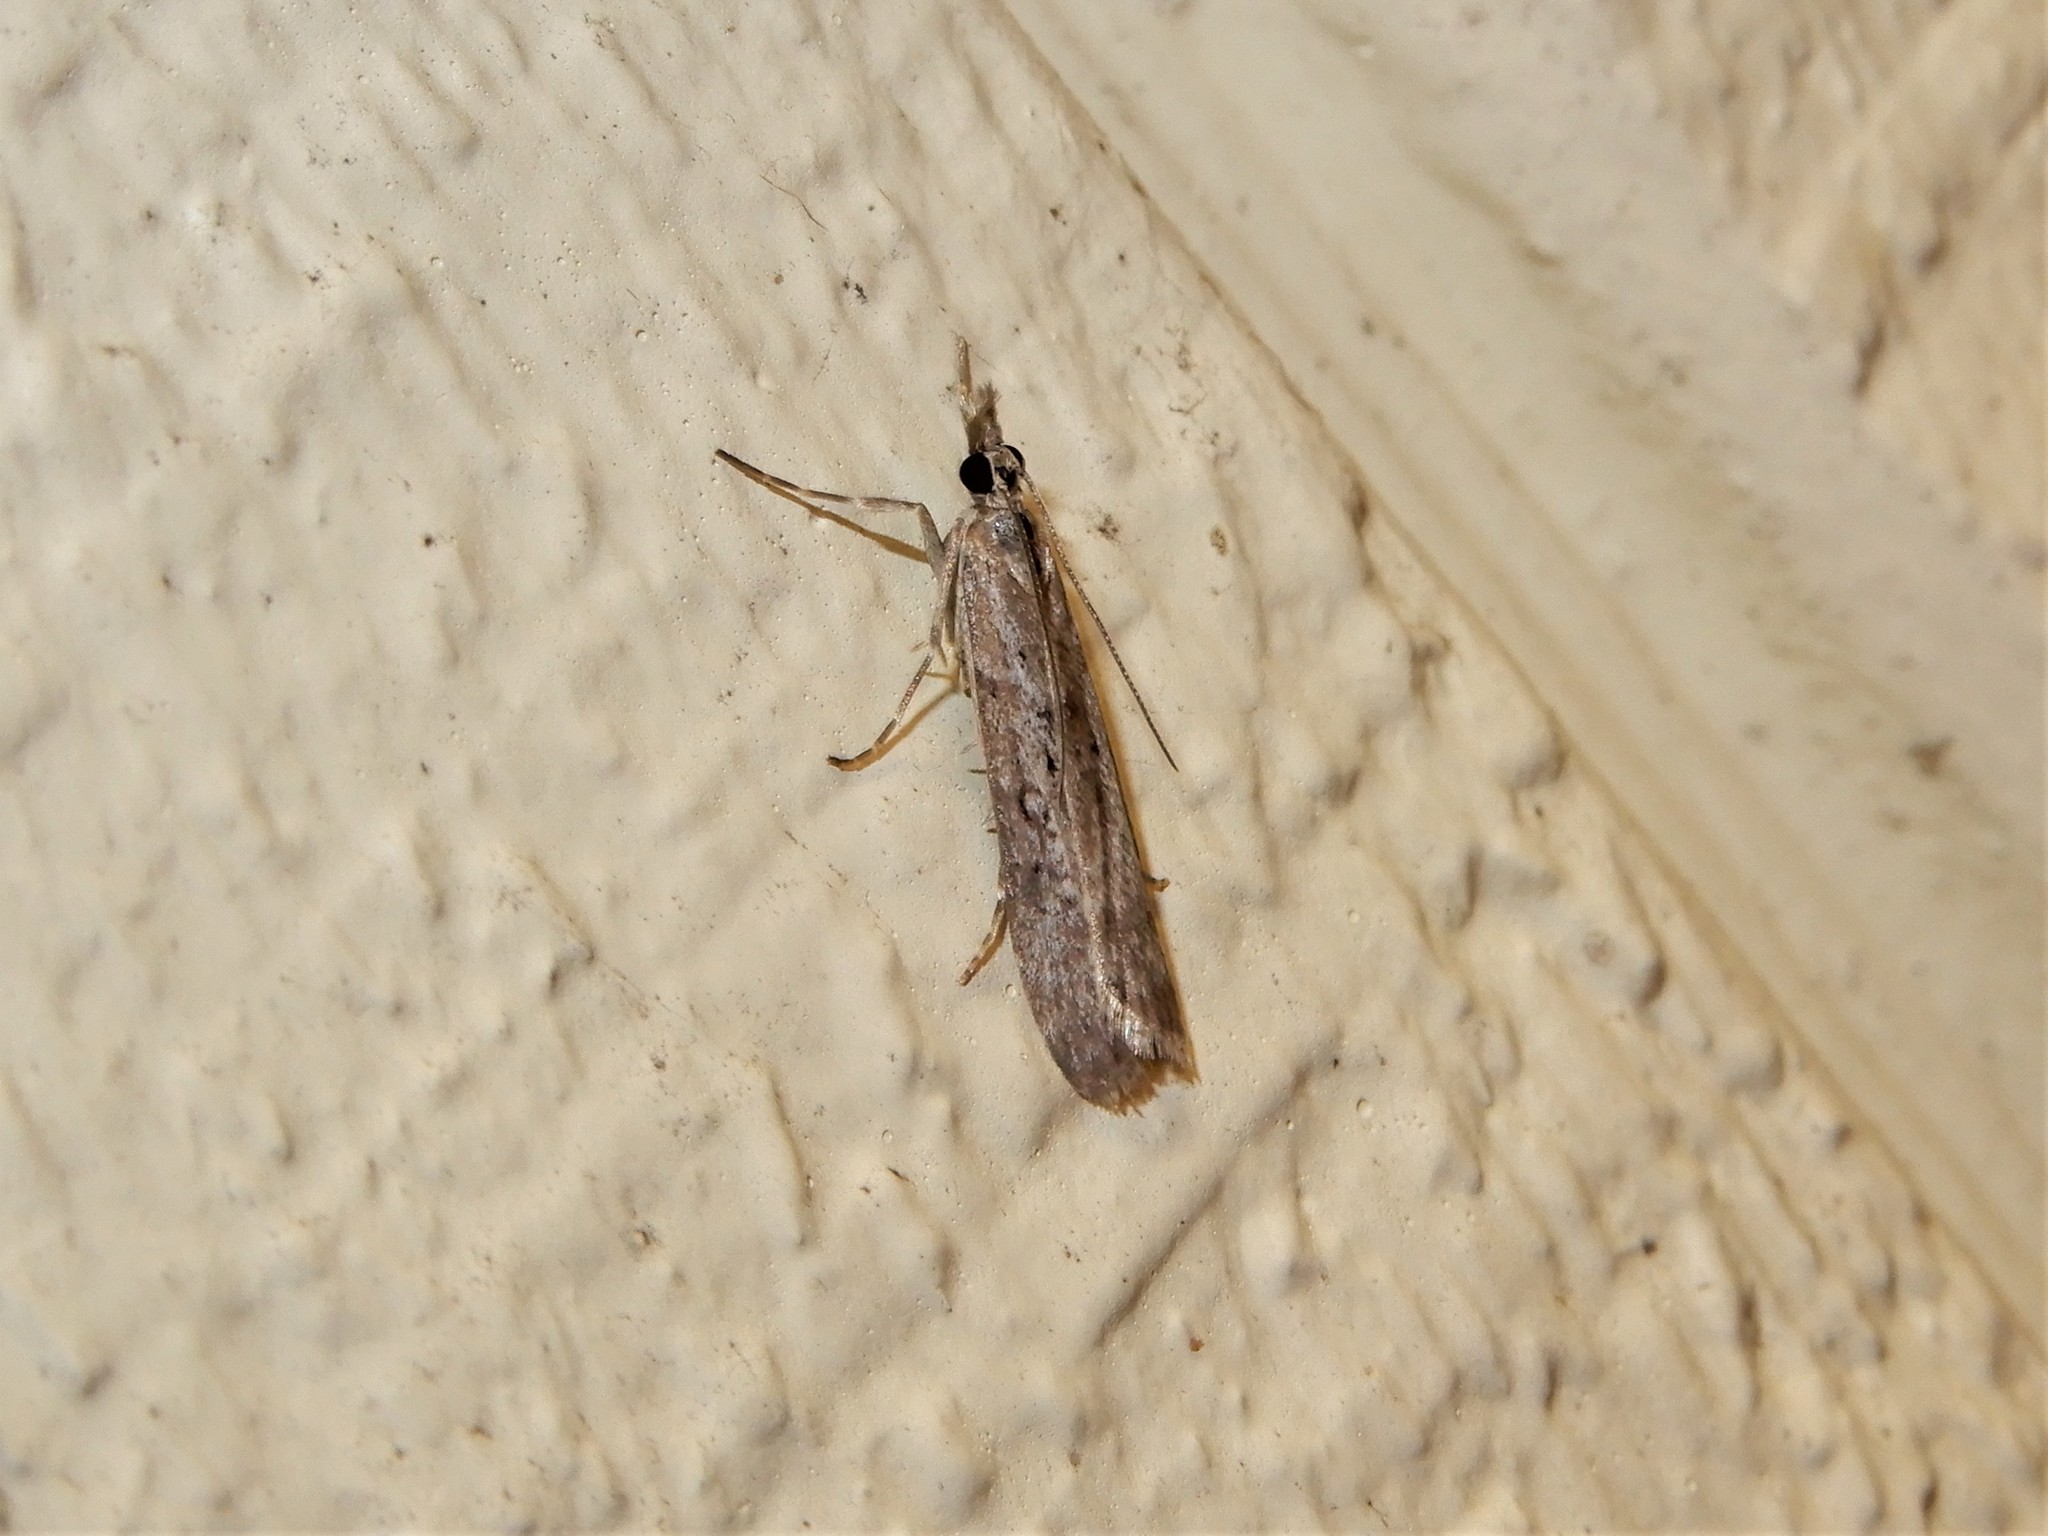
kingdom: Animalia
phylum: Arthropoda
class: Insecta
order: Lepidoptera
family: Crambidae
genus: Eudonia
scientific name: Eudonia leptalea
